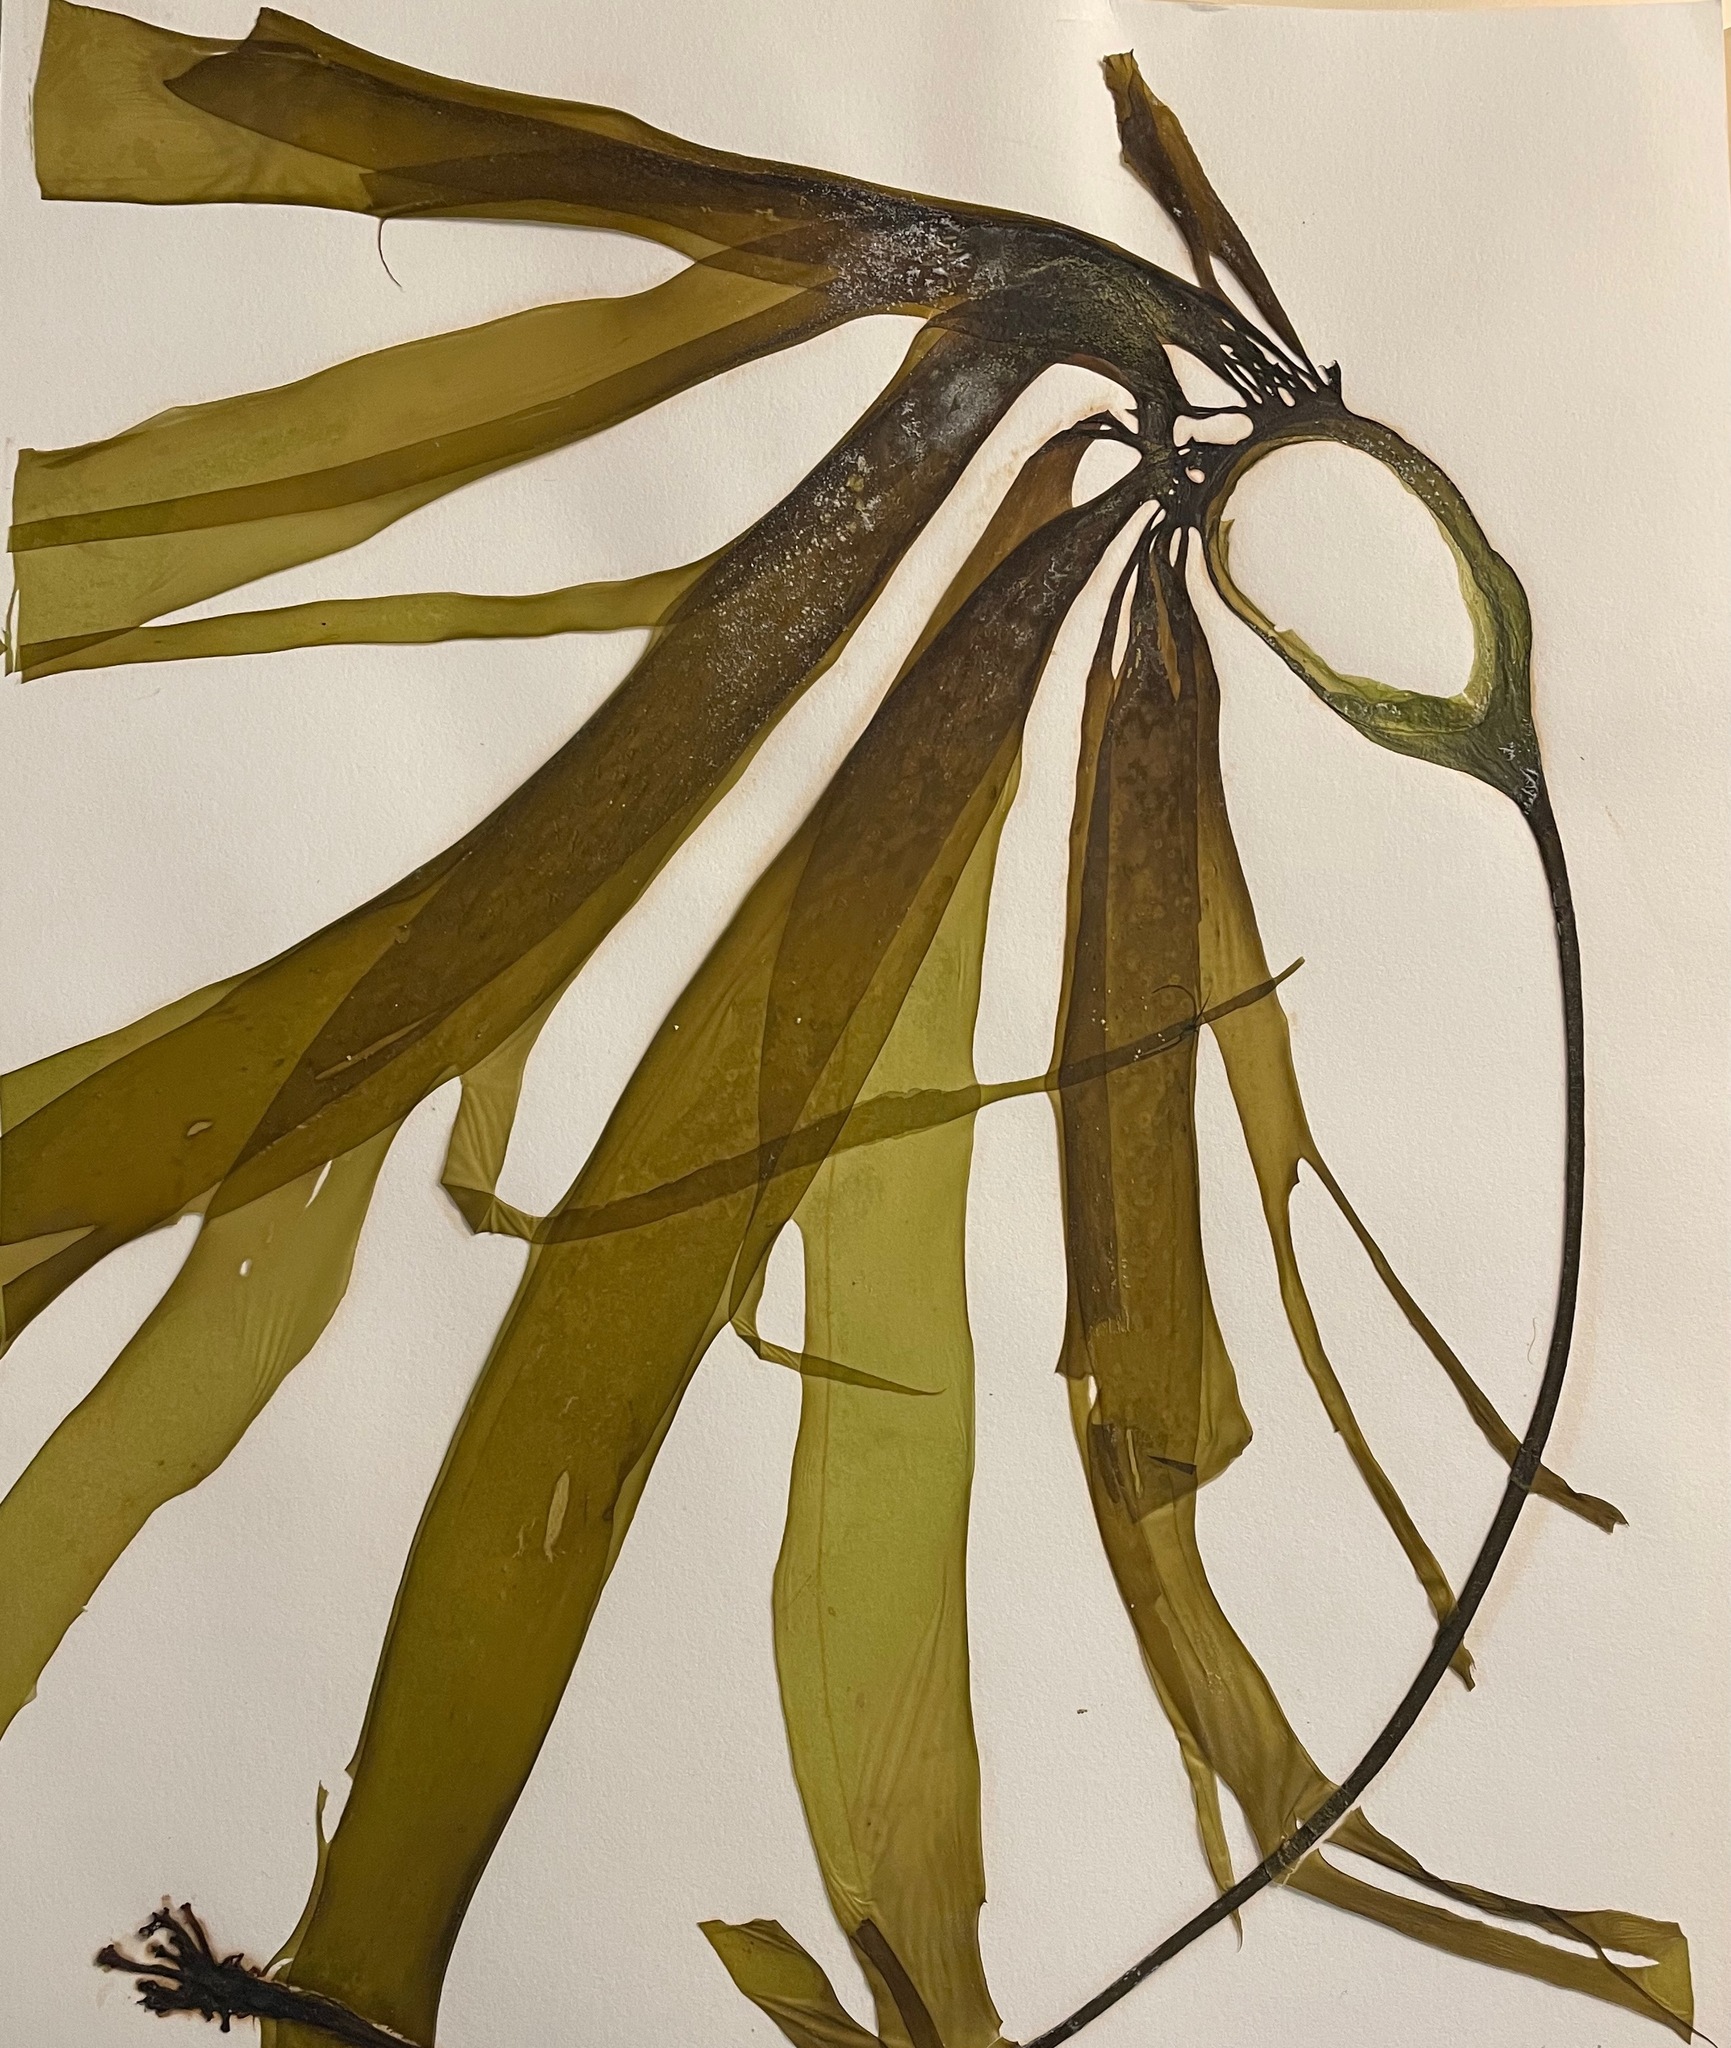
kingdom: Chromista
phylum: Ochrophyta
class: Phaeophyceae
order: Laminariales
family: Laminariaceae
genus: Nereocystis
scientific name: Nereocystis luetkeana
